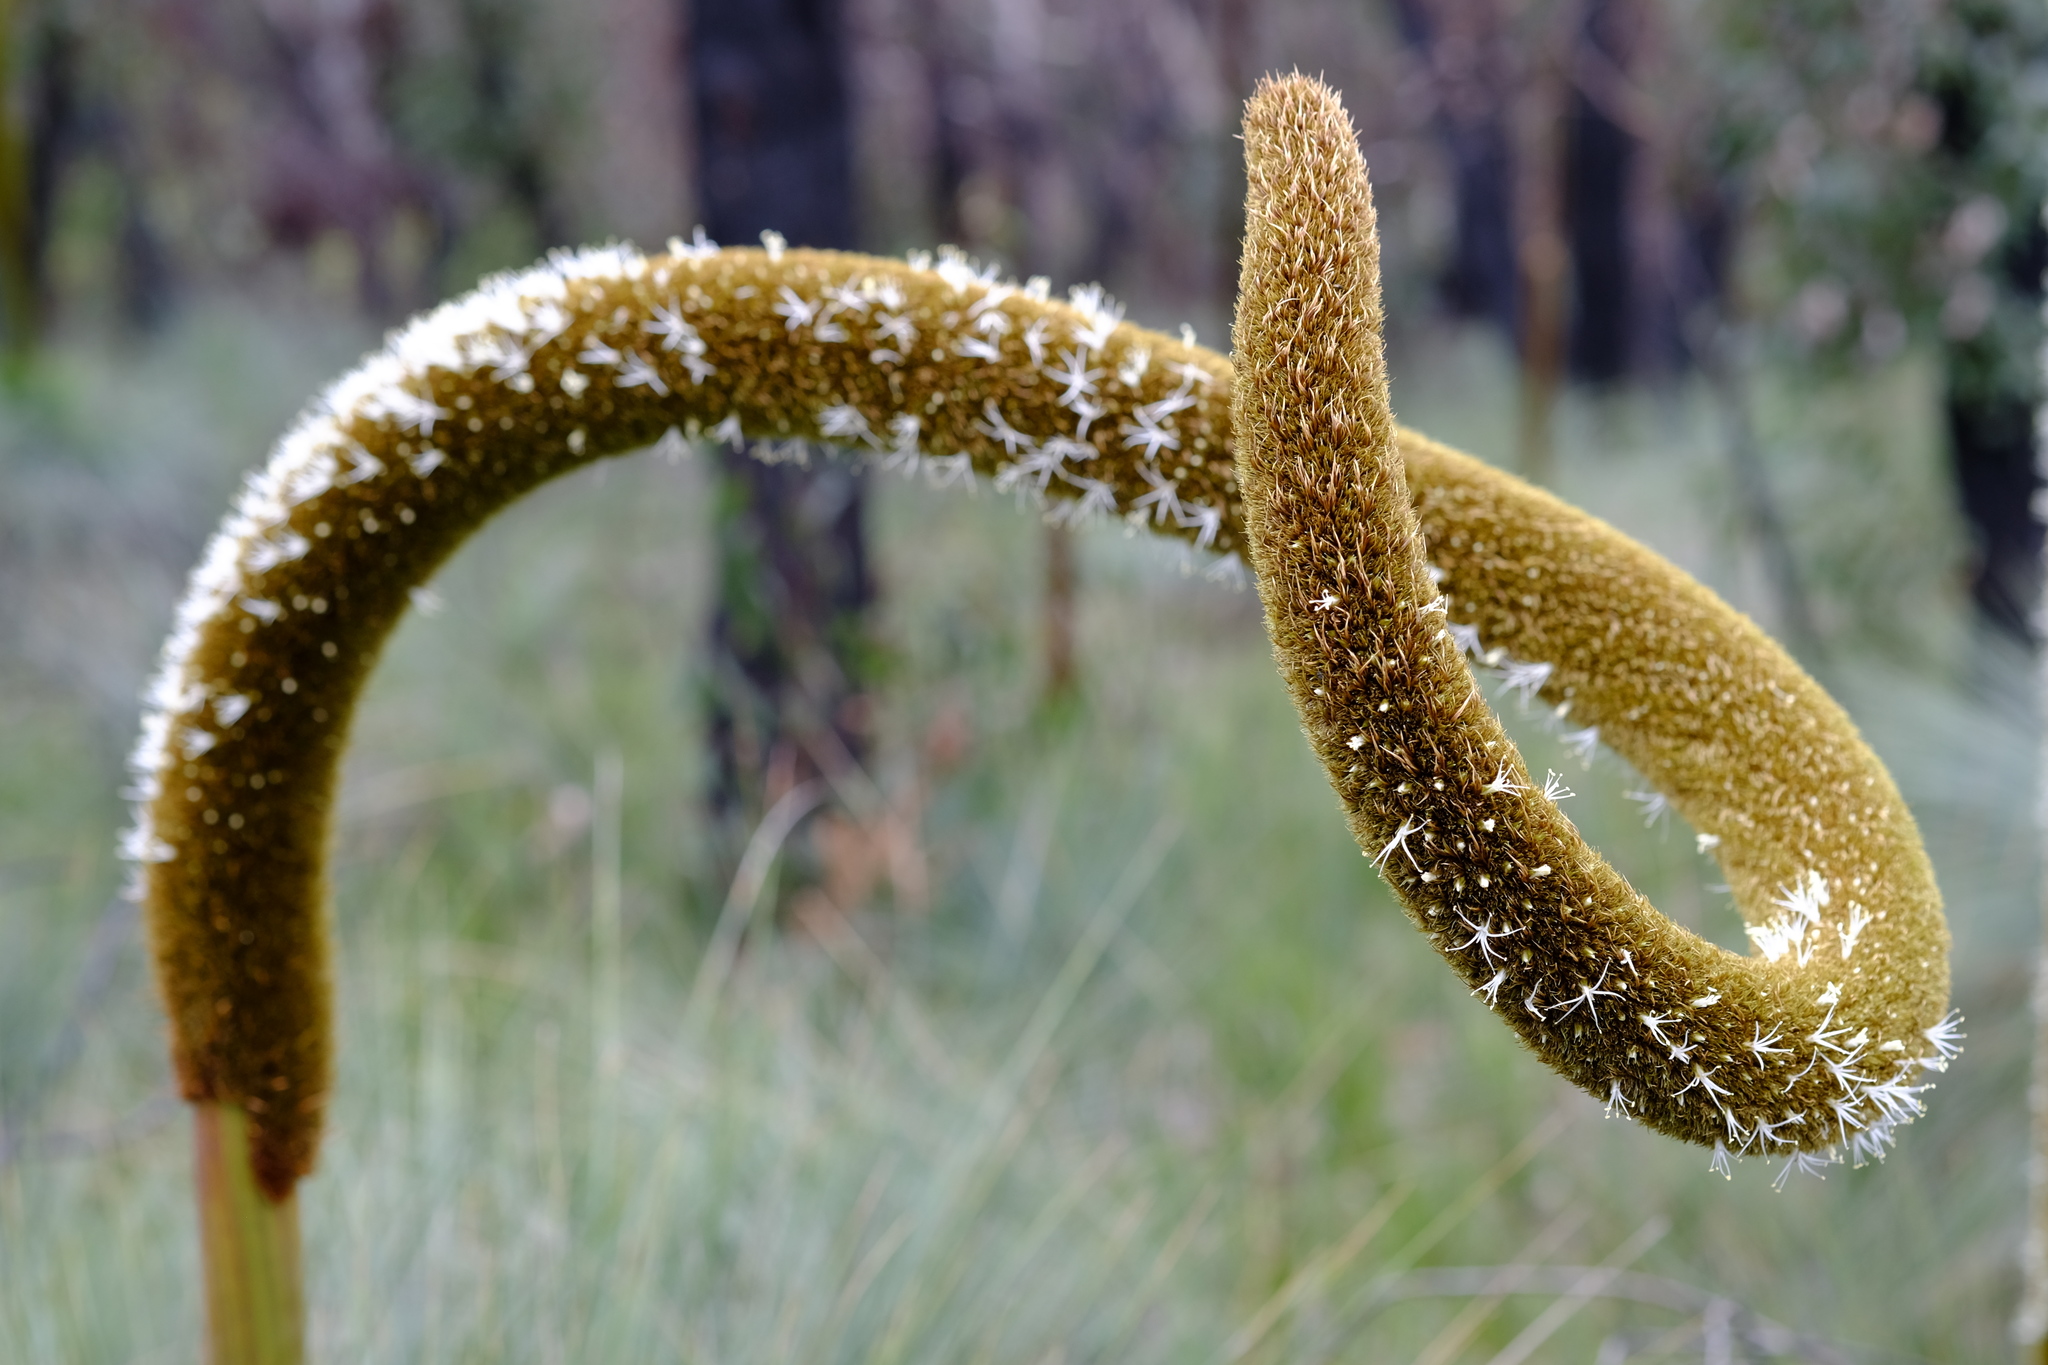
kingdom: Plantae
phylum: Tracheophyta
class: Liliopsida
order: Asparagales
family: Asphodelaceae
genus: Xanthorrhoea
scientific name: Xanthorrhoea australis
